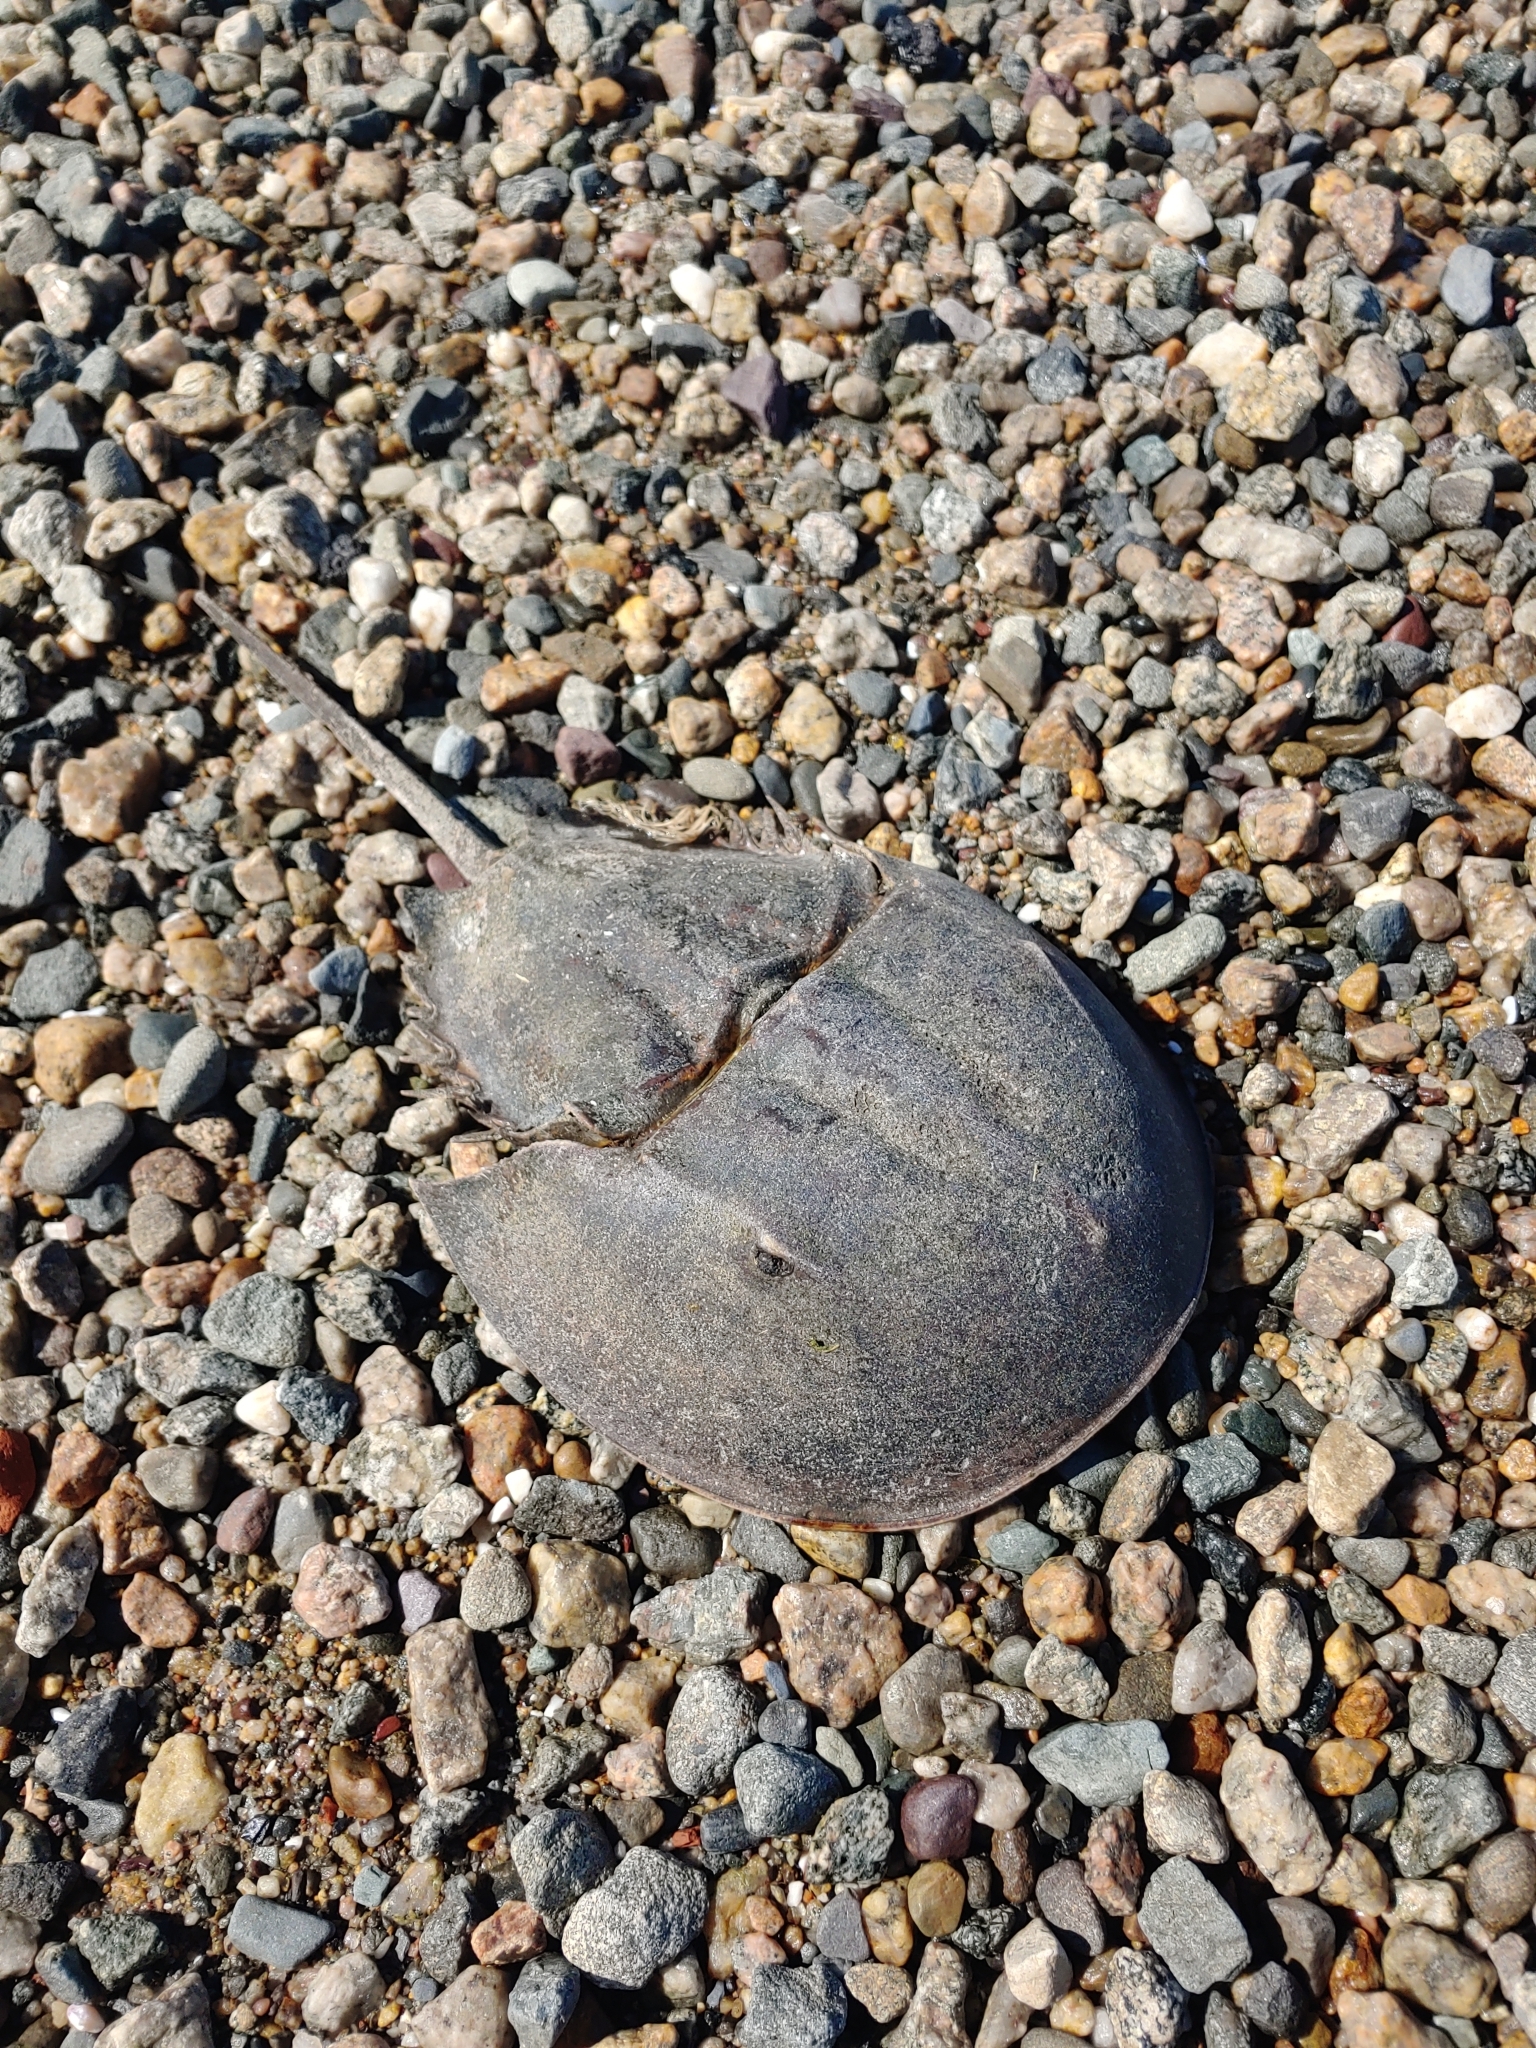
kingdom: Animalia
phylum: Arthropoda
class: Merostomata
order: Xiphosurida
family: Limulidae
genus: Limulus
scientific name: Limulus polyphemus
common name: Horseshoe crab
